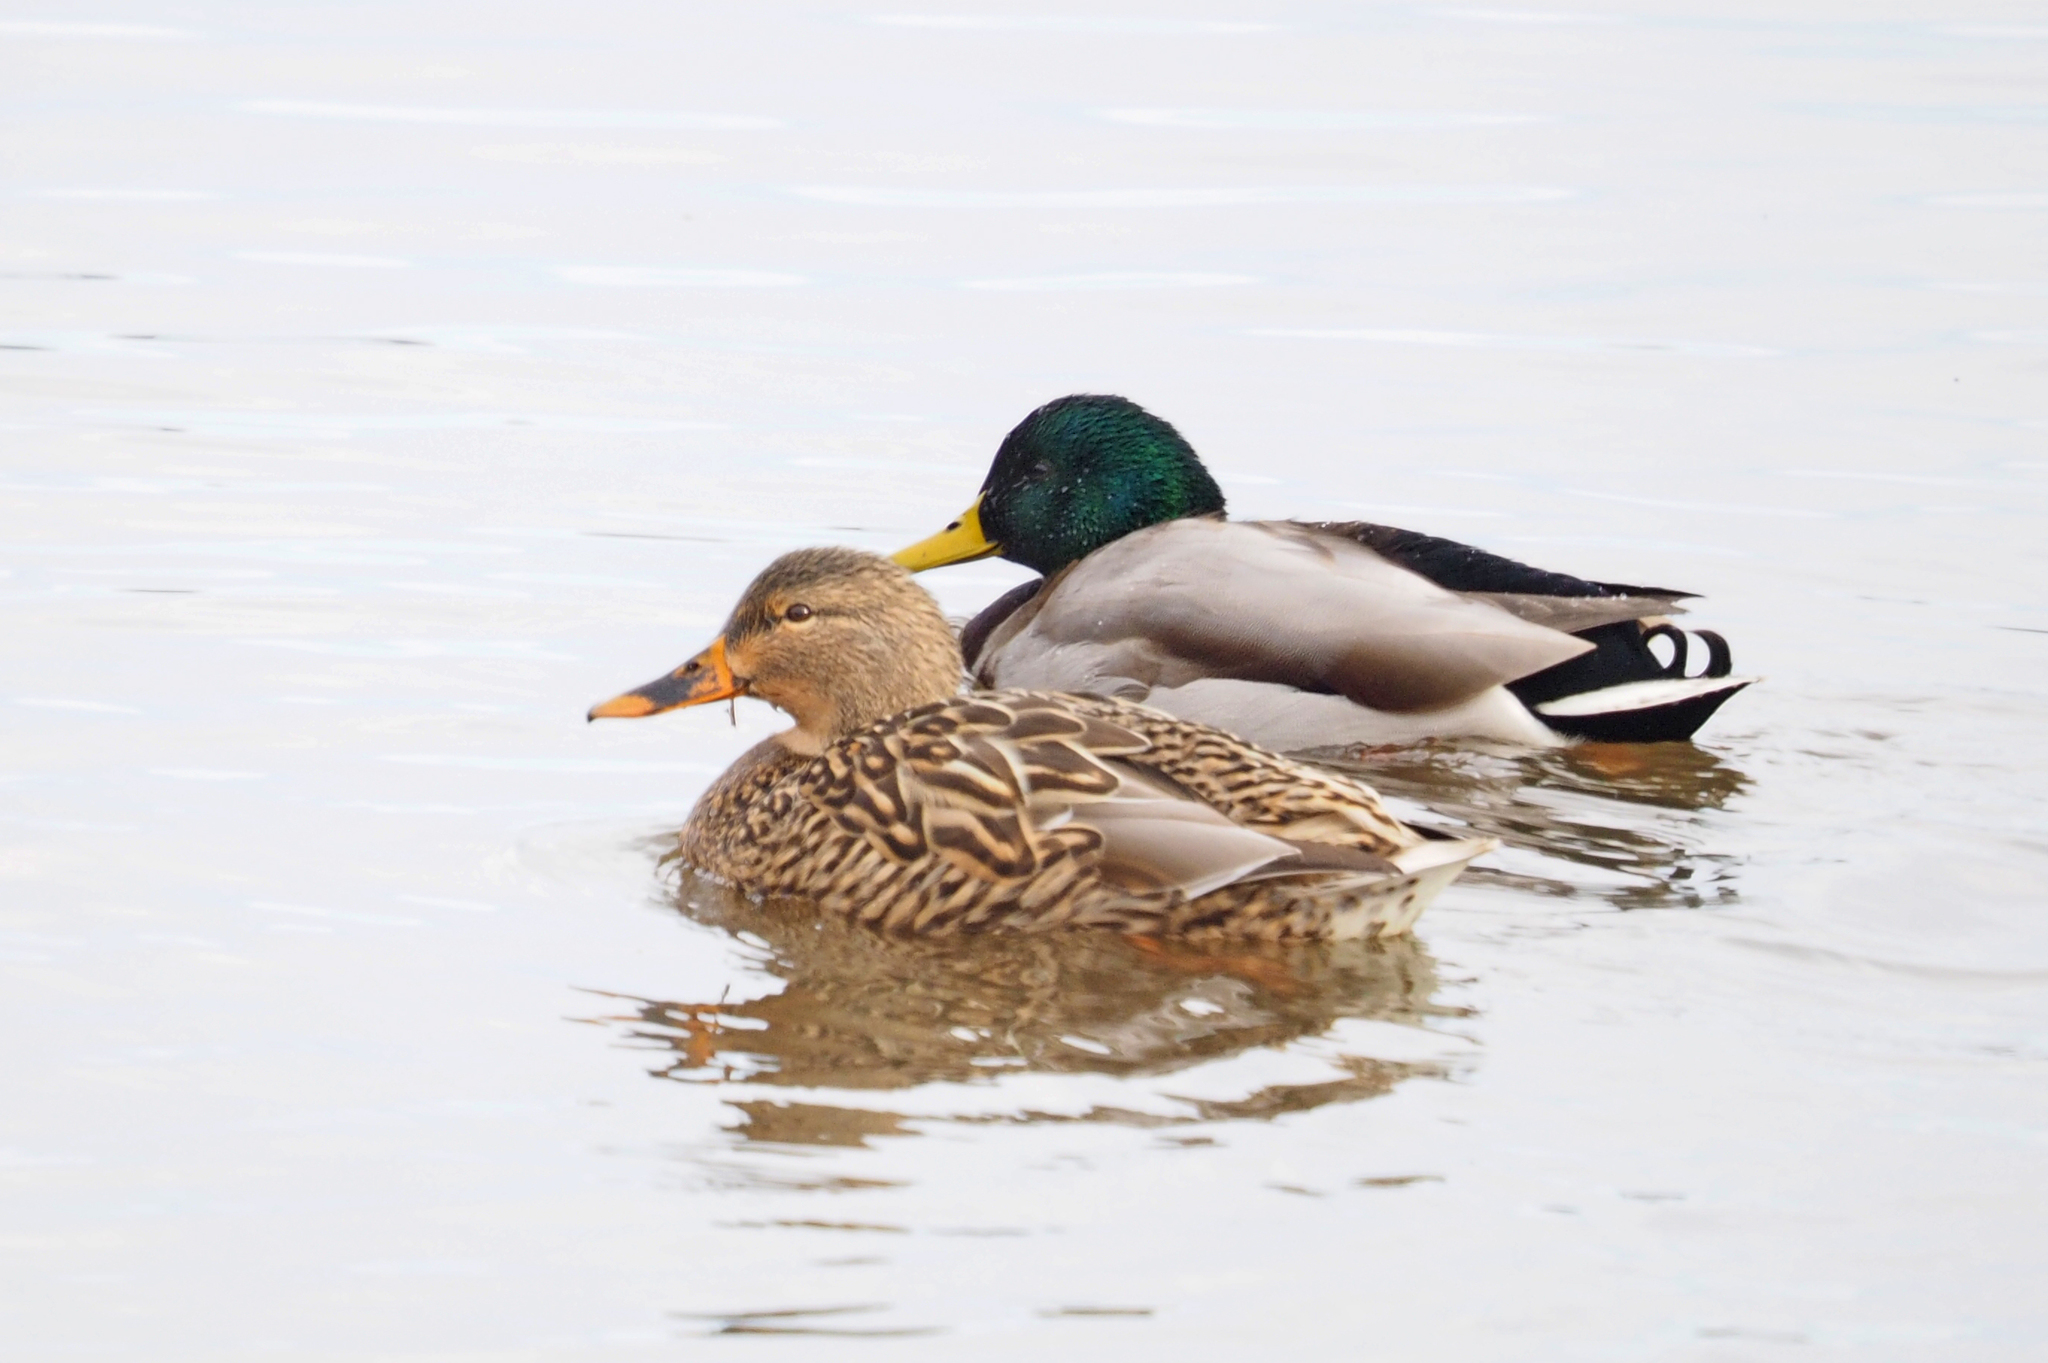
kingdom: Animalia
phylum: Chordata
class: Aves
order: Anseriformes
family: Anatidae
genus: Anas
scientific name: Anas platyrhynchos
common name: Mallard
